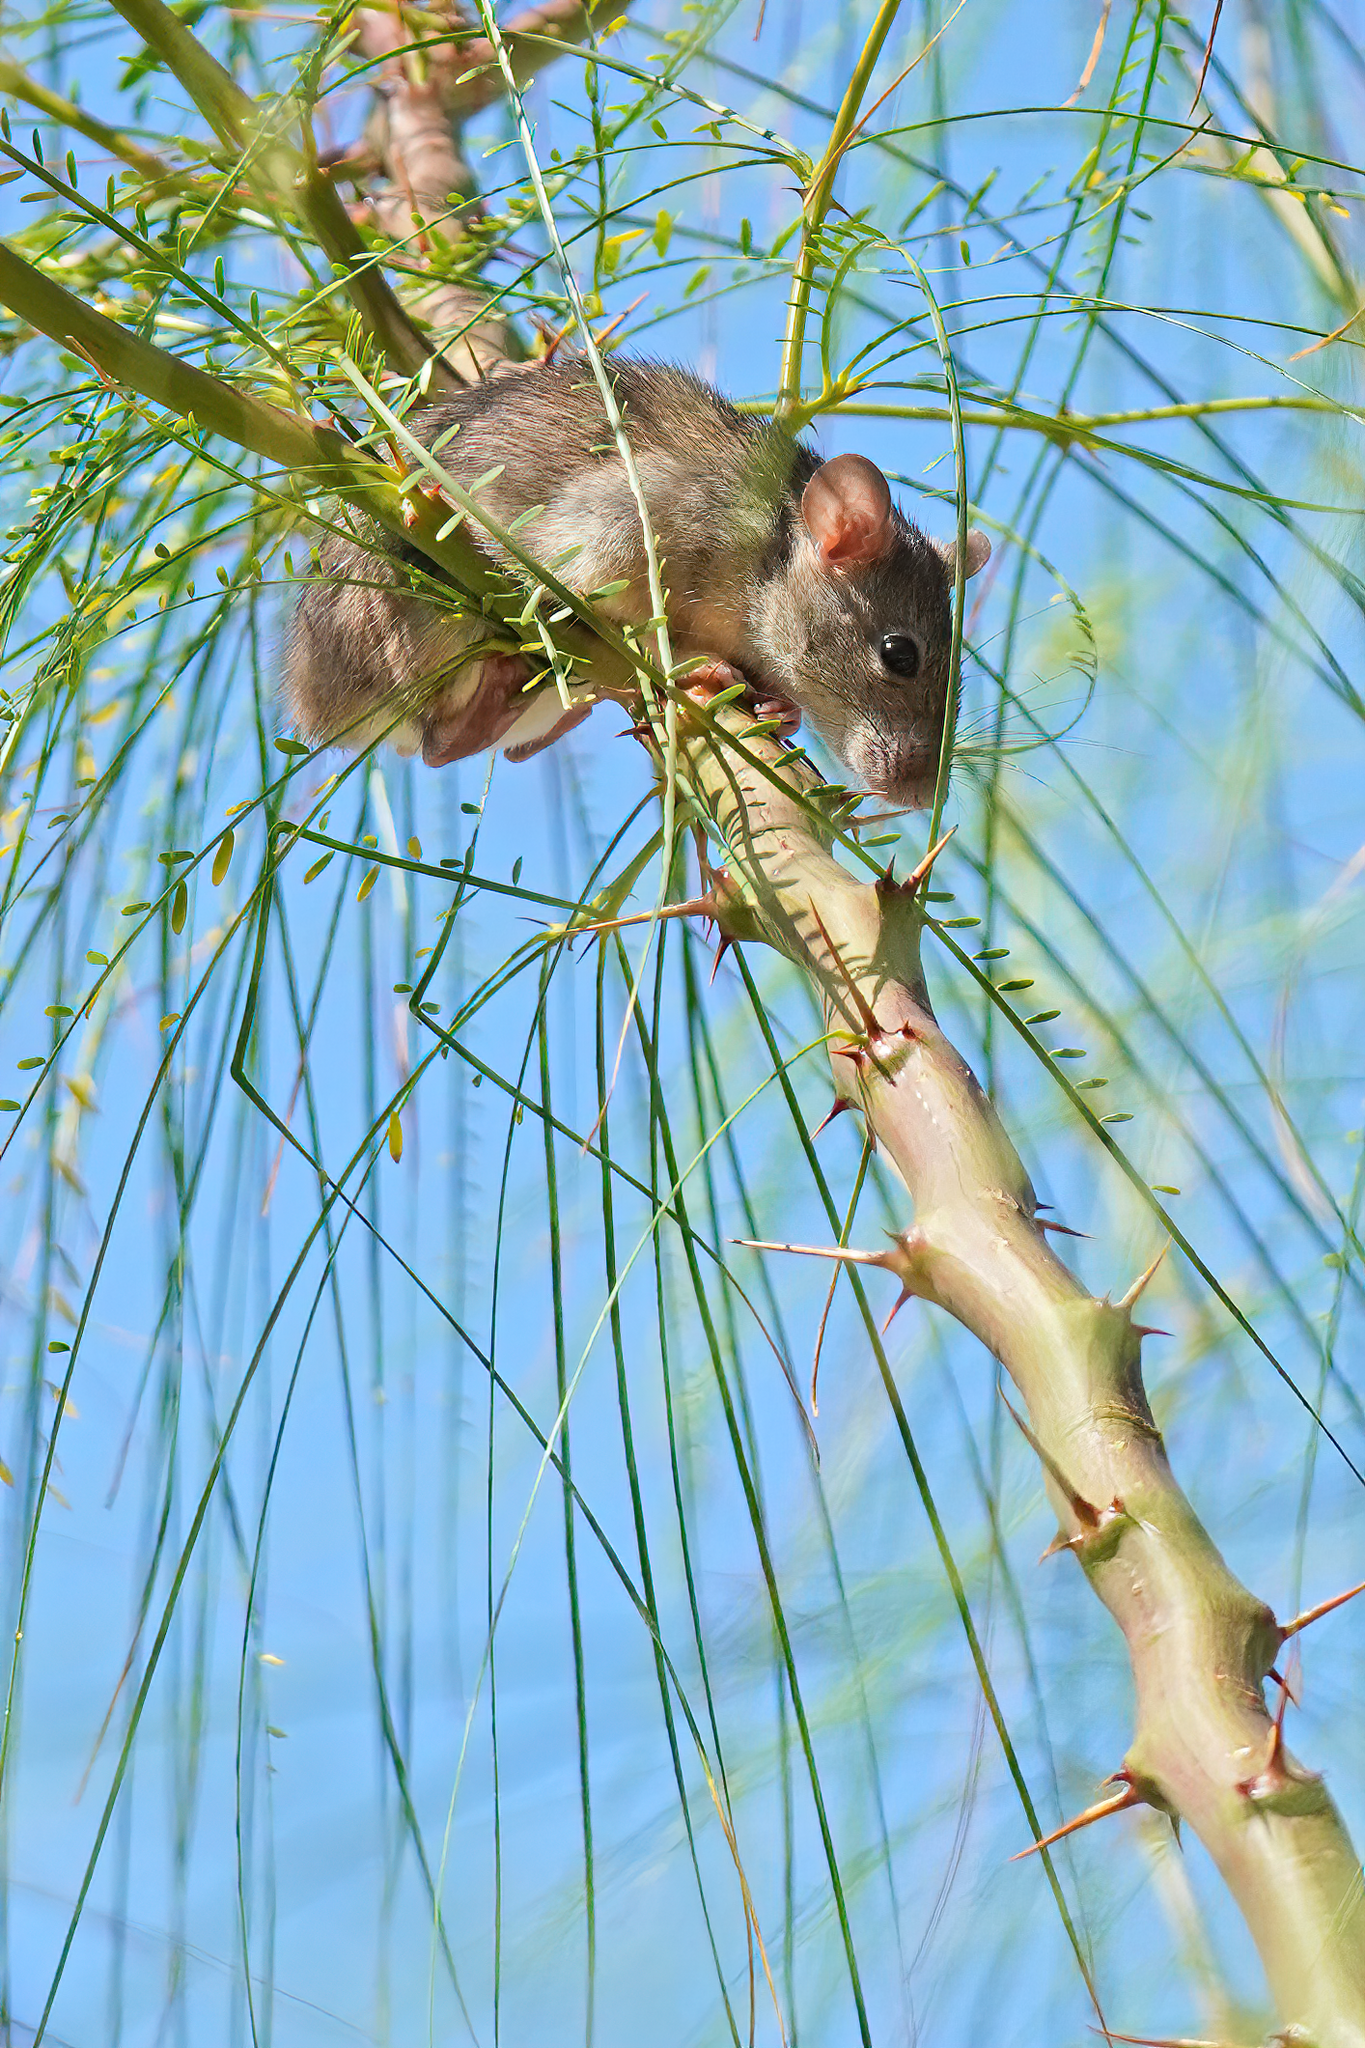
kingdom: Animalia
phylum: Chordata
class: Mammalia
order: Rodentia
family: Muridae
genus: Rattus
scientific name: Rattus norvegicus
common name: Brown rat
